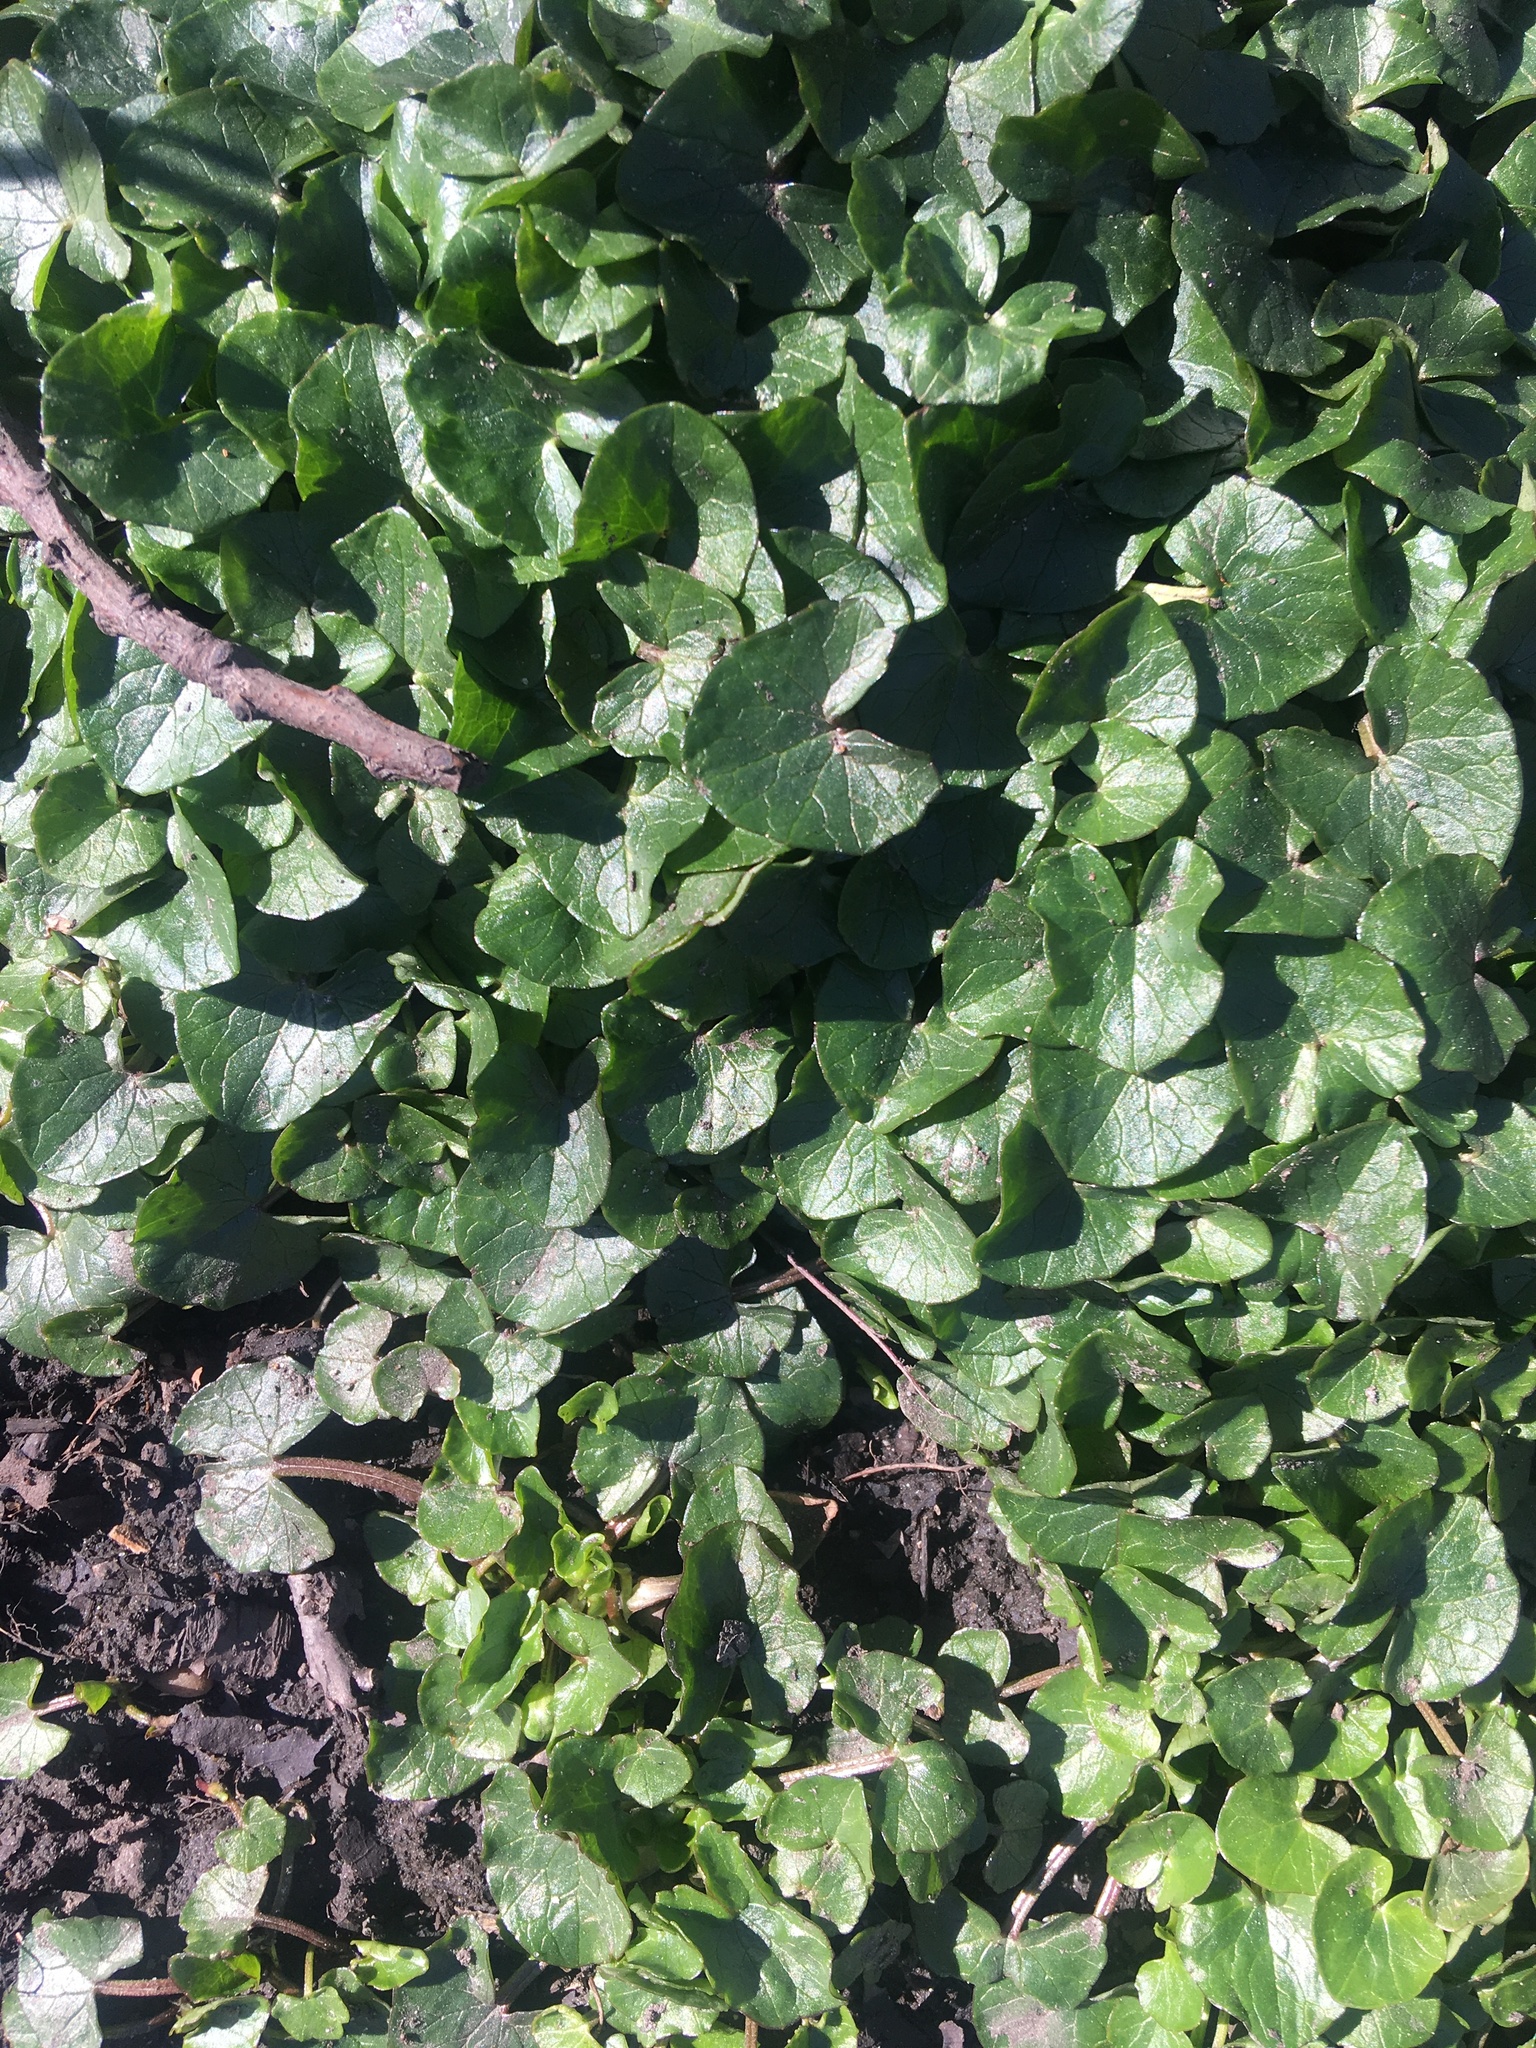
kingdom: Plantae
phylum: Tracheophyta
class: Magnoliopsida
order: Ranunculales
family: Ranunculaceae
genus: Ficaria
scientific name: Ficaria verna
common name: Lesser celandine
